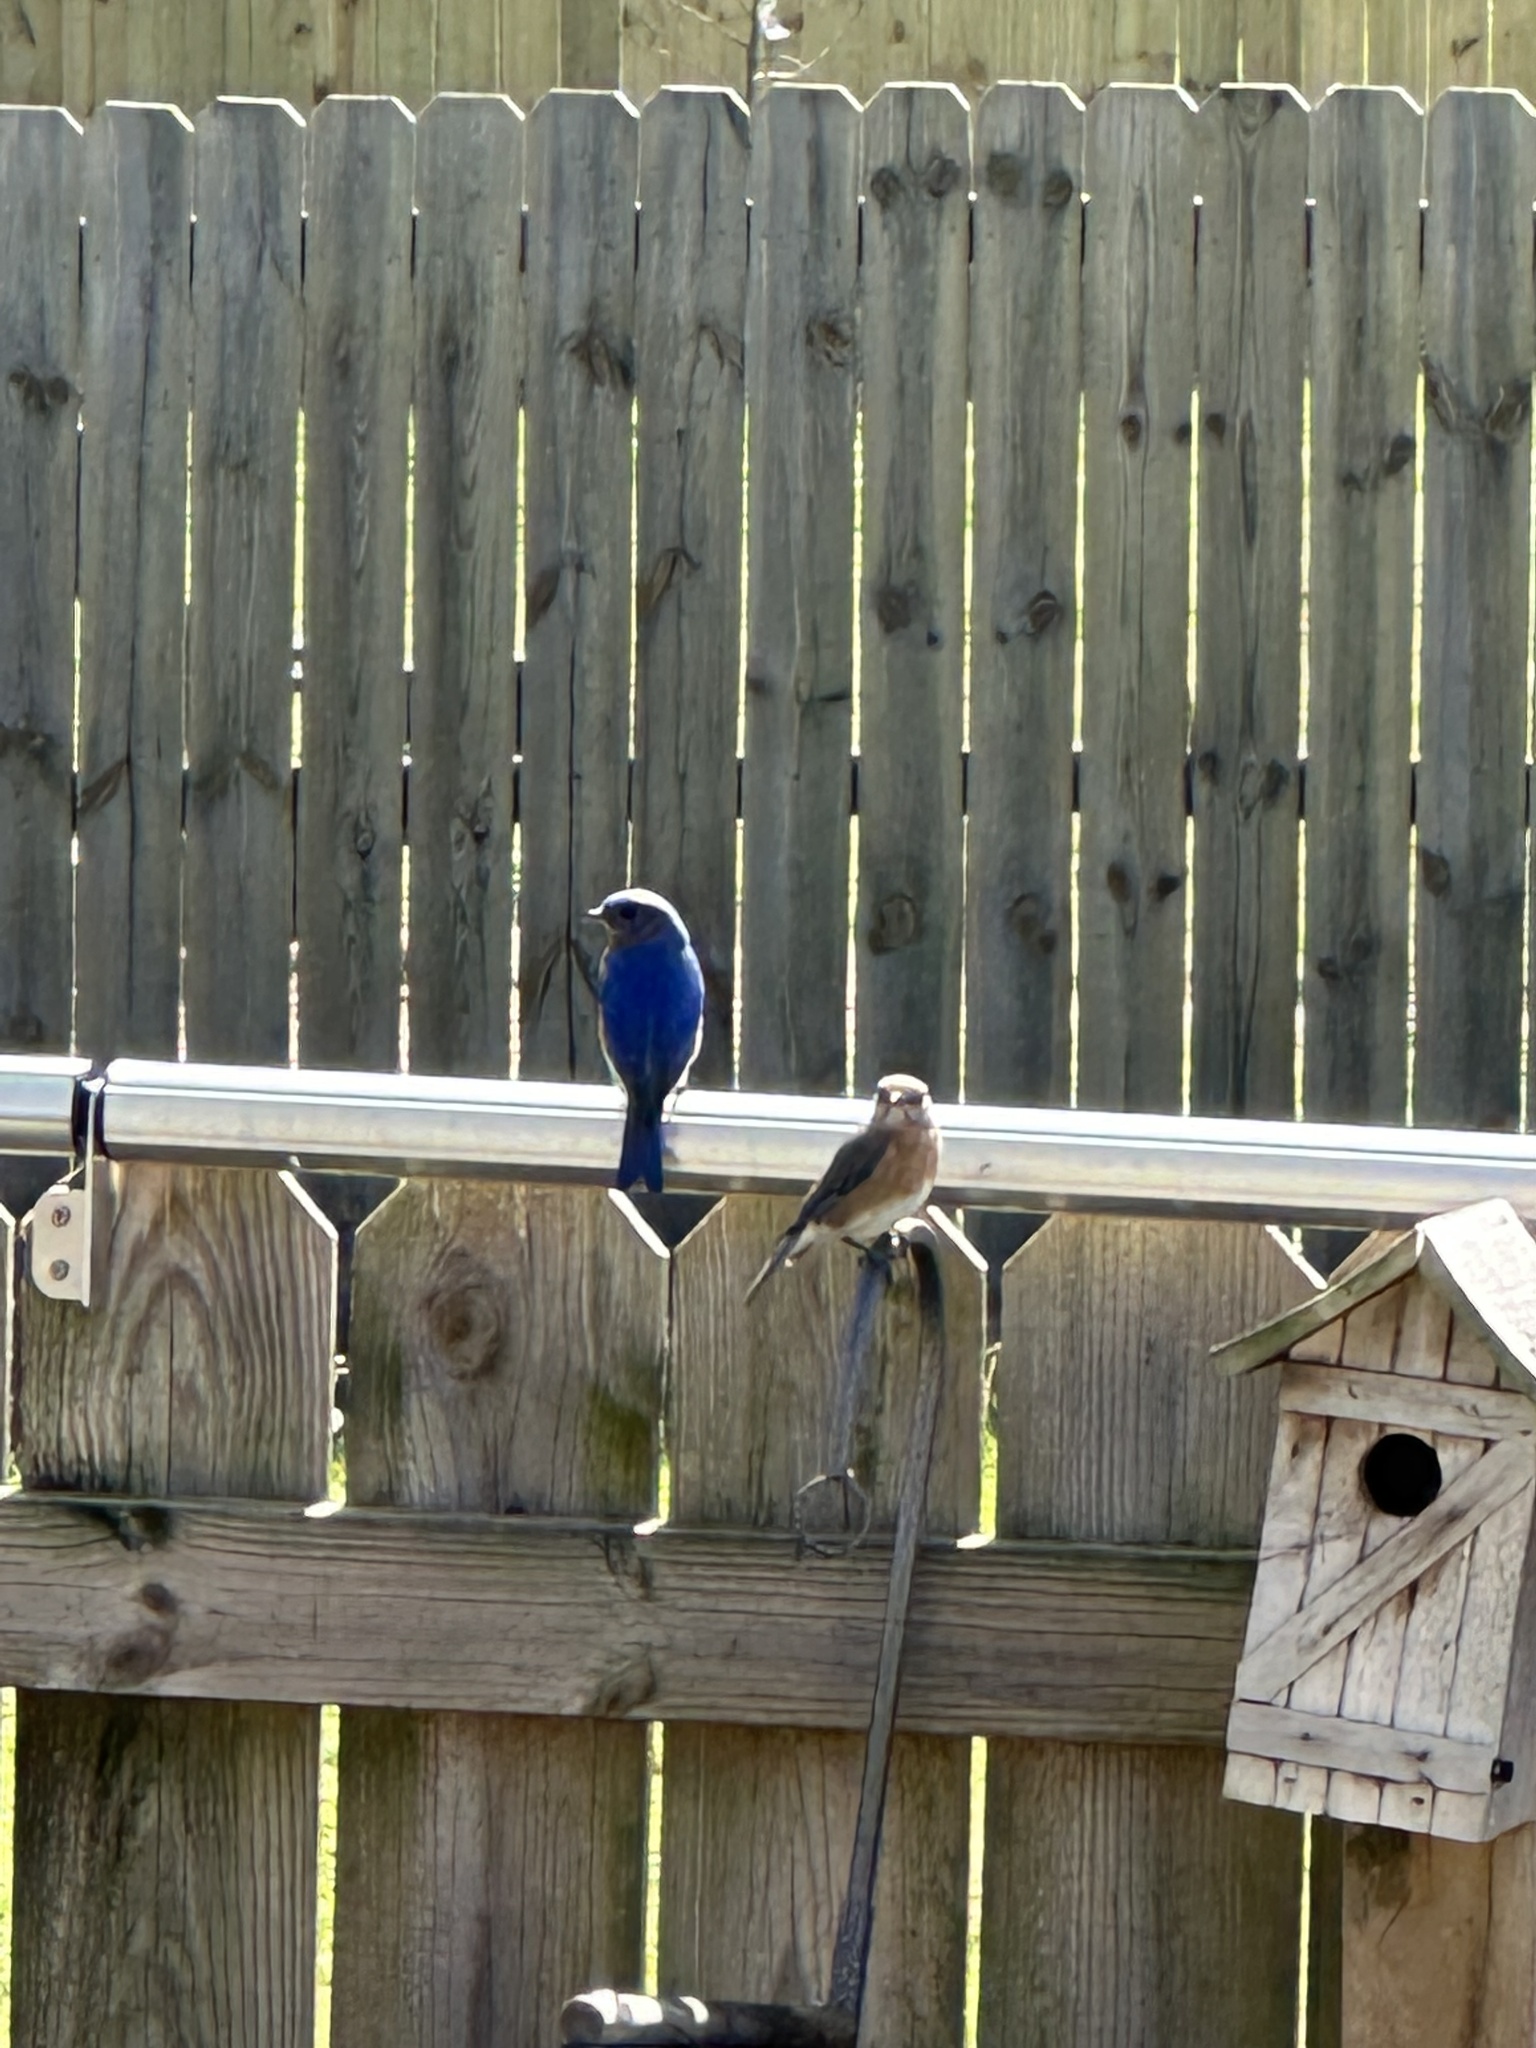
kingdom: Animalia
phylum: Chordata
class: Aves
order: Passeriformes
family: Turdidae
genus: Sialia
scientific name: Sialia sialis
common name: Eastern bluebird
